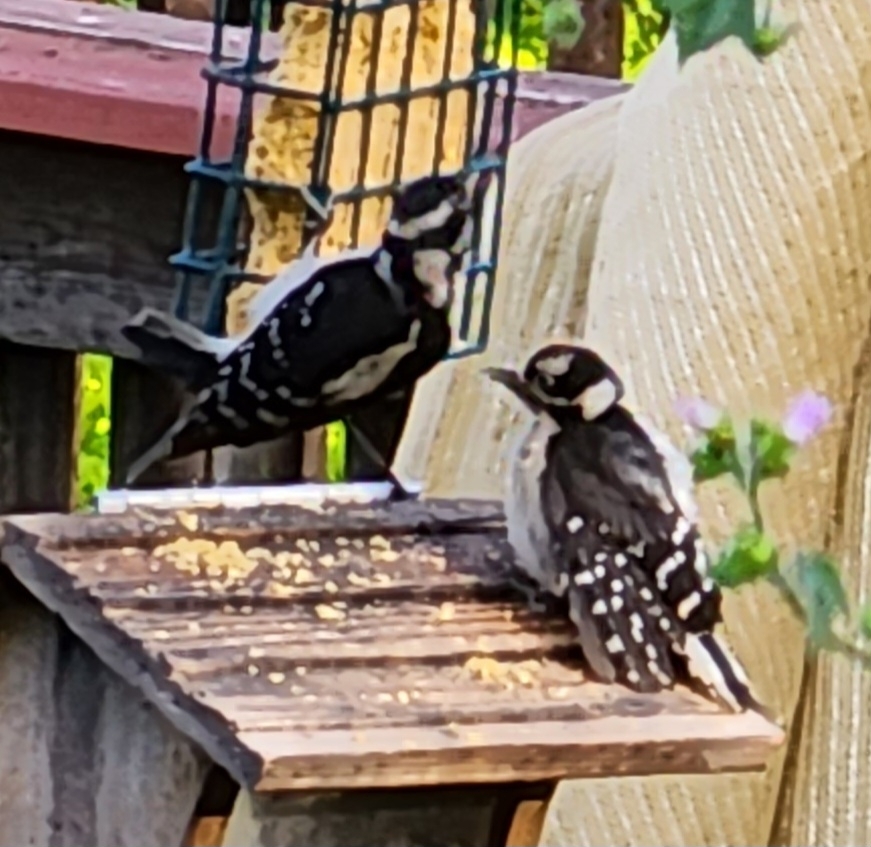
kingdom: Animalia
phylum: Chordata
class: Aves
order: Piciformes
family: Picidae
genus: Dryobates
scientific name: Dryobates pubescens
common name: Downy woodpecker
